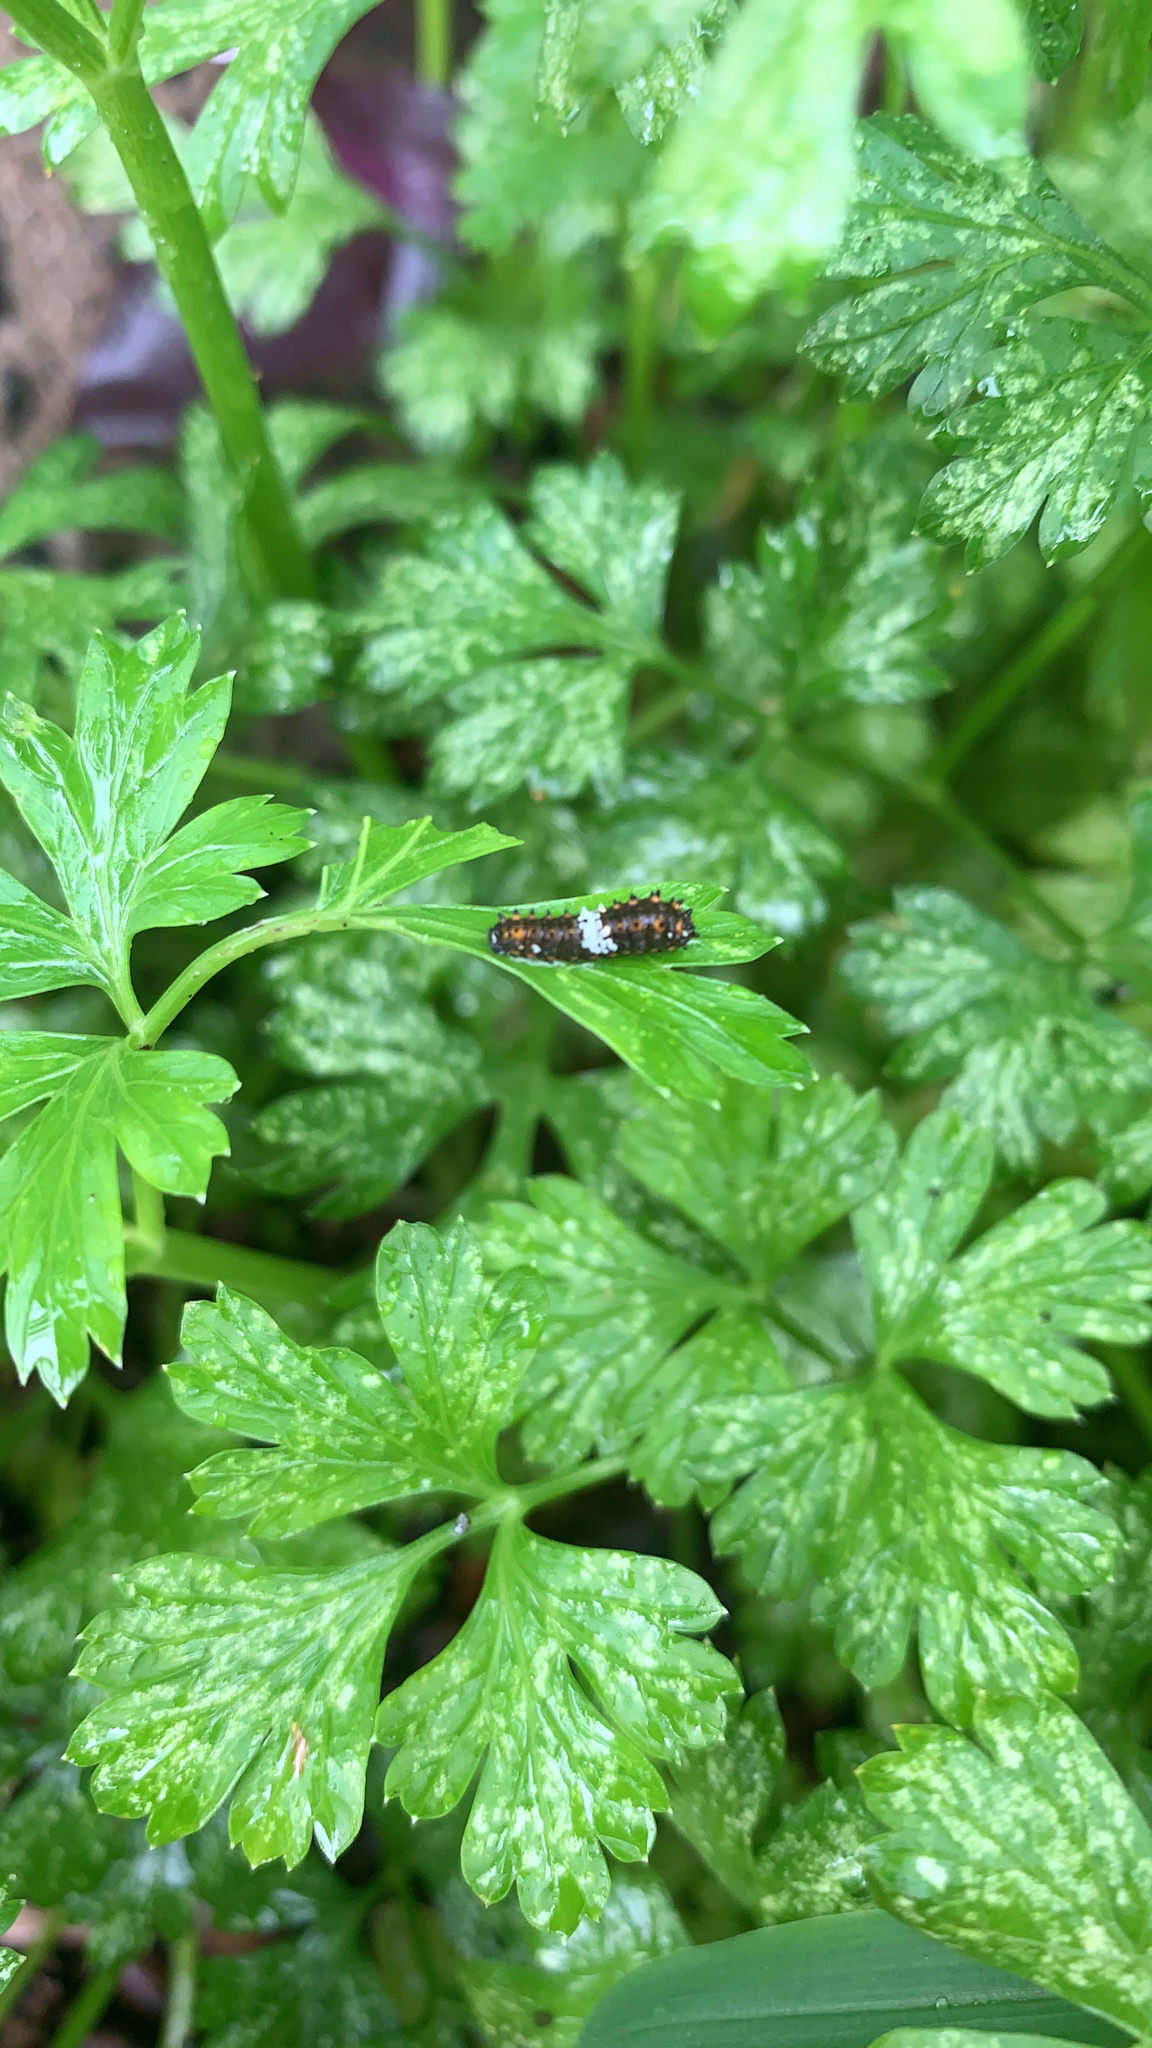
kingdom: Animalia
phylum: Arthropoda
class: Insecta
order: Lepidoptera
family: Papilionidae
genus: Papilio
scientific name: Papilio polyxenes
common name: Black swallowtail
